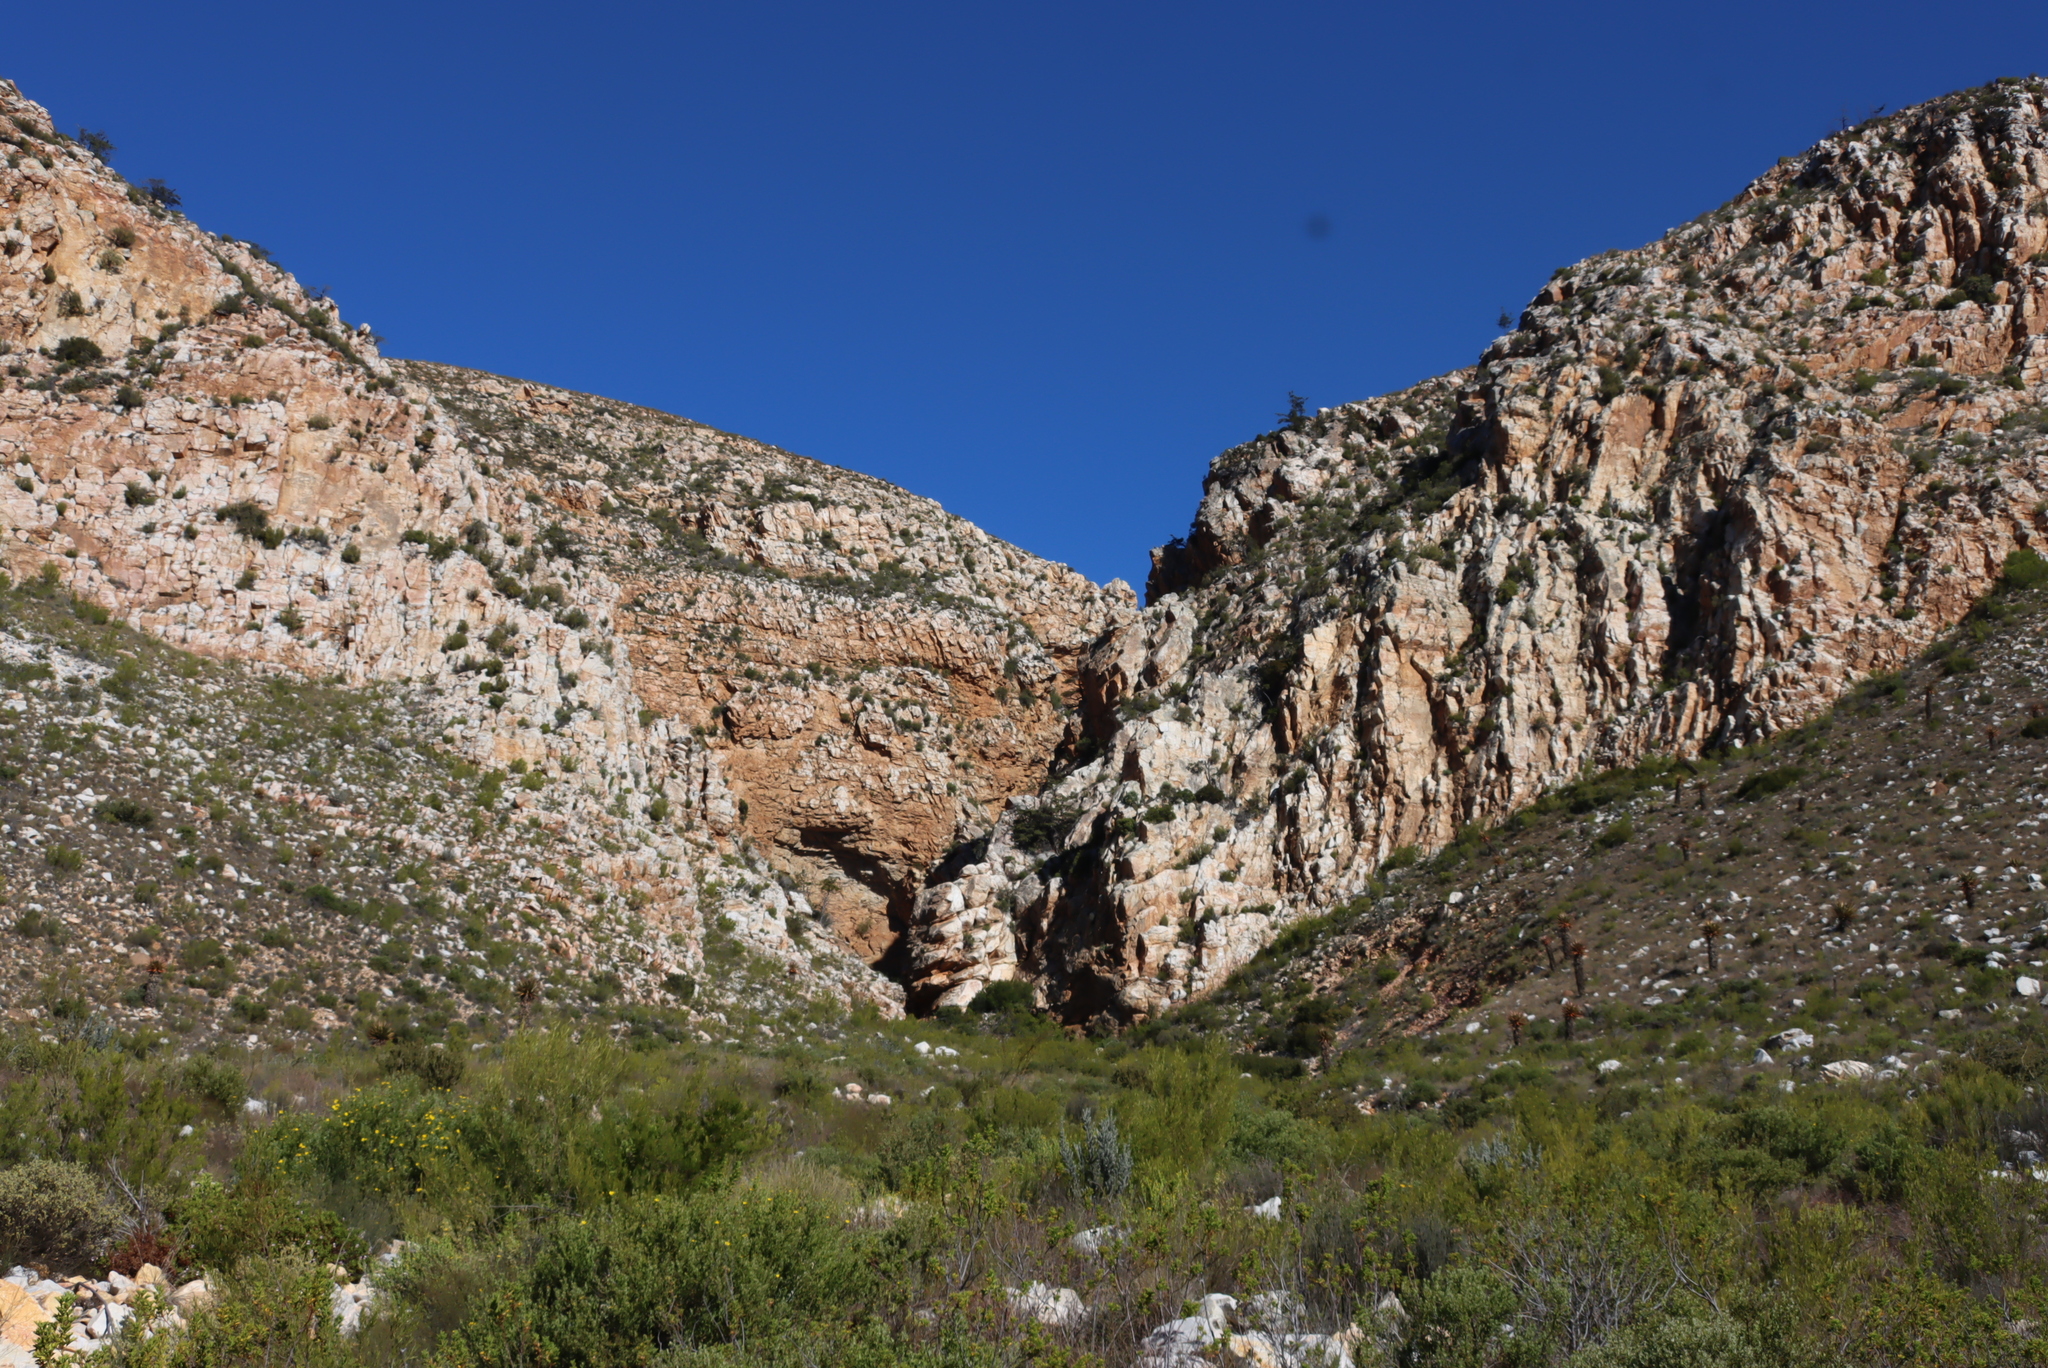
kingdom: Plantae
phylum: Tracheophyta
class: Pinopsida
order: Pinales
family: Cupressaceae
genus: Widdringtonia
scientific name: Widdringtonia schwarzii
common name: Baviaans cedar
